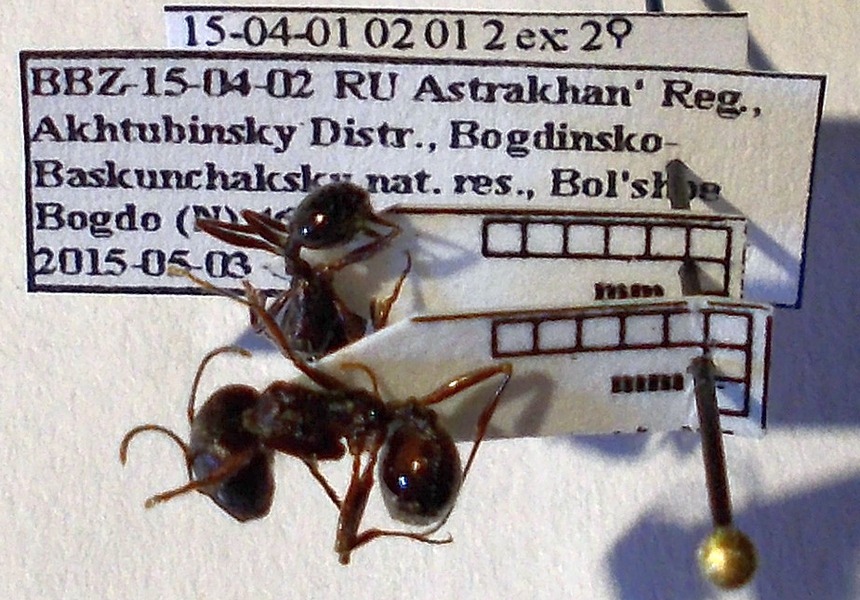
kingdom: Animalia
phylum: Arthropoda
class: Insecta
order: Hymenoptera
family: Formicidae
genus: Messor
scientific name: Messor structor
